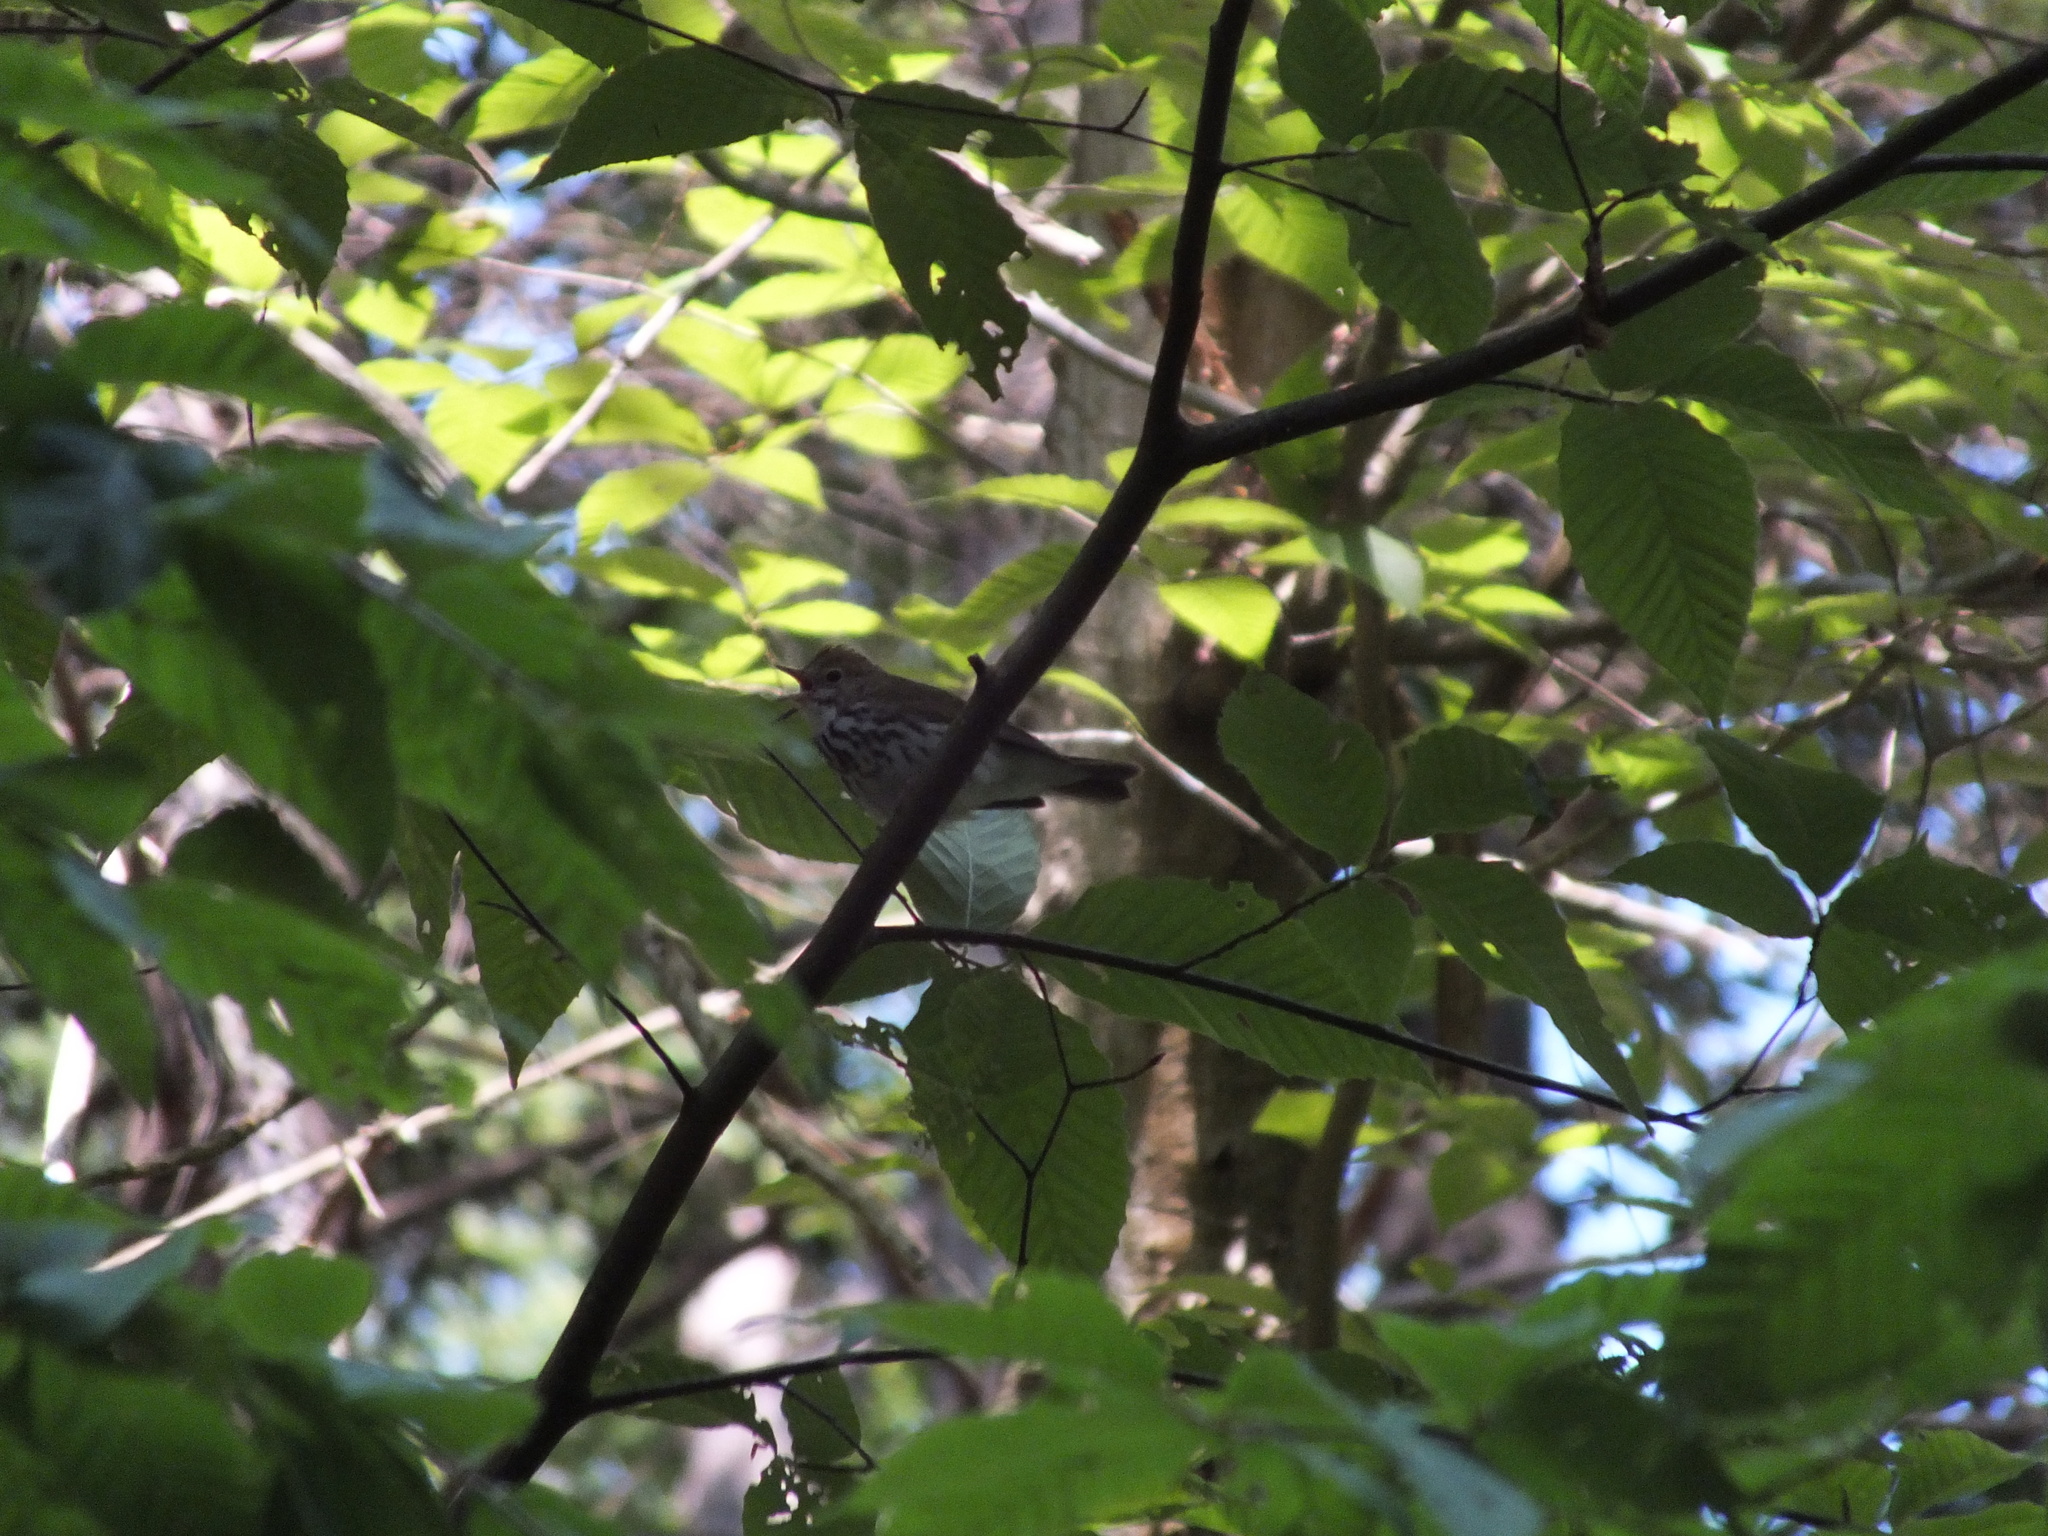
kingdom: Animalia
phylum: Chordata
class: Aves
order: Passeriformes
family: Parulidae
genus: Seiurus
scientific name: Seiurus aurocapilla
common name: Ovenbird
